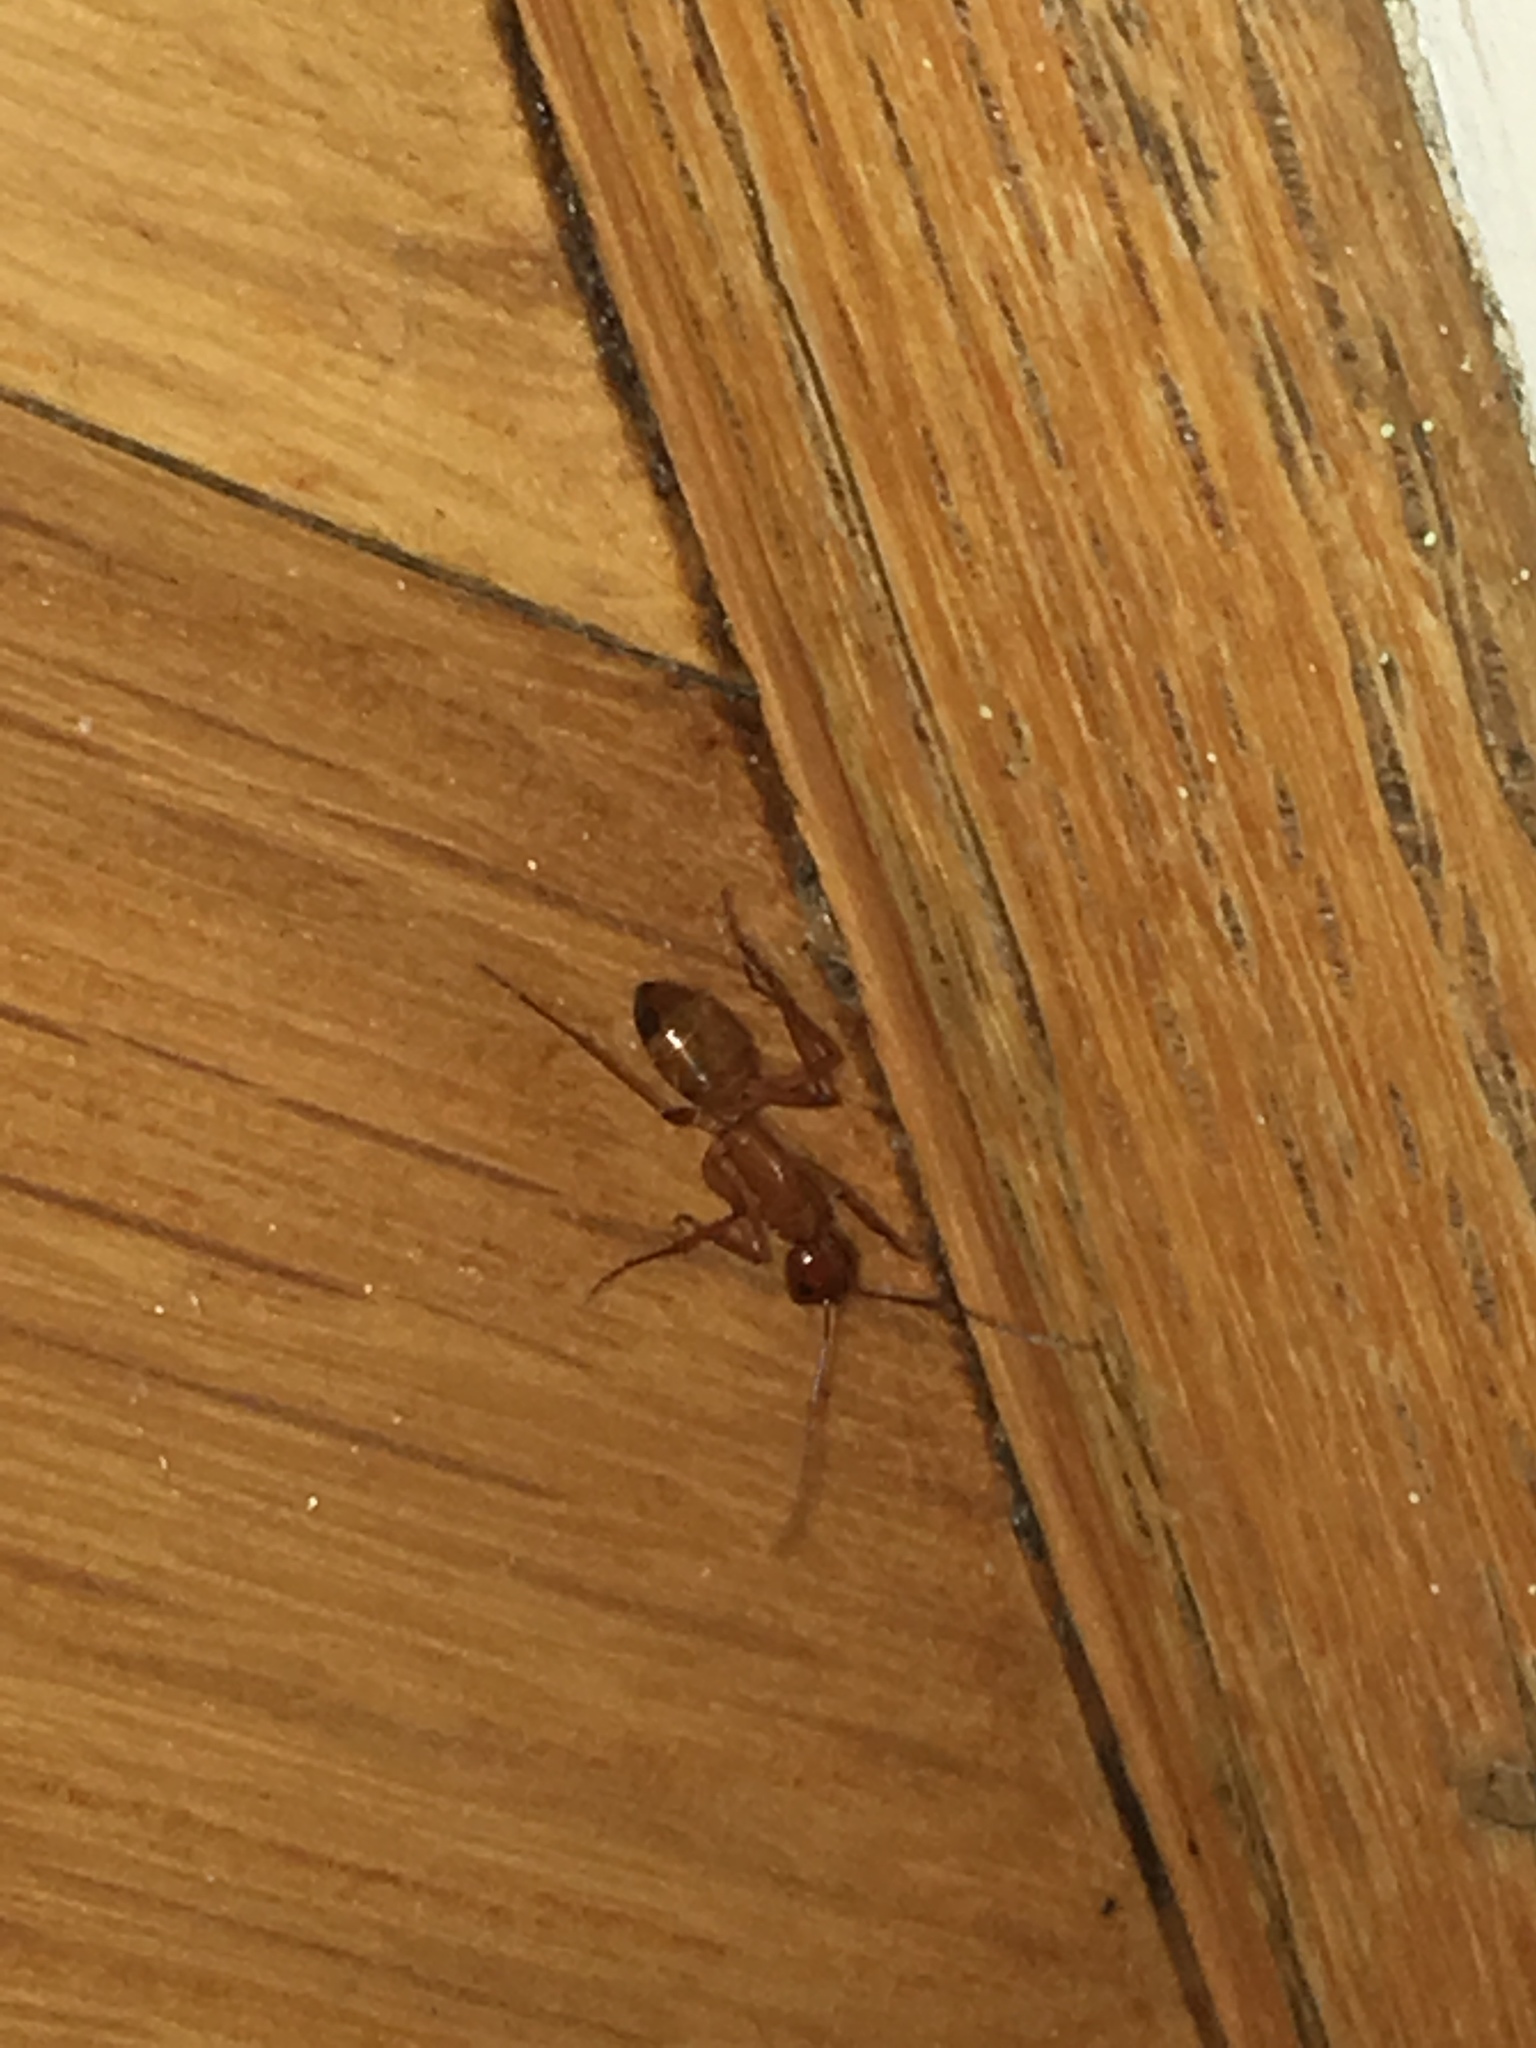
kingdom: Animalia
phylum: Arthropoda
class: Insecta
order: Hymenoptera
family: Formicidae
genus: Camponotus
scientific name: Camponotus castaneus
